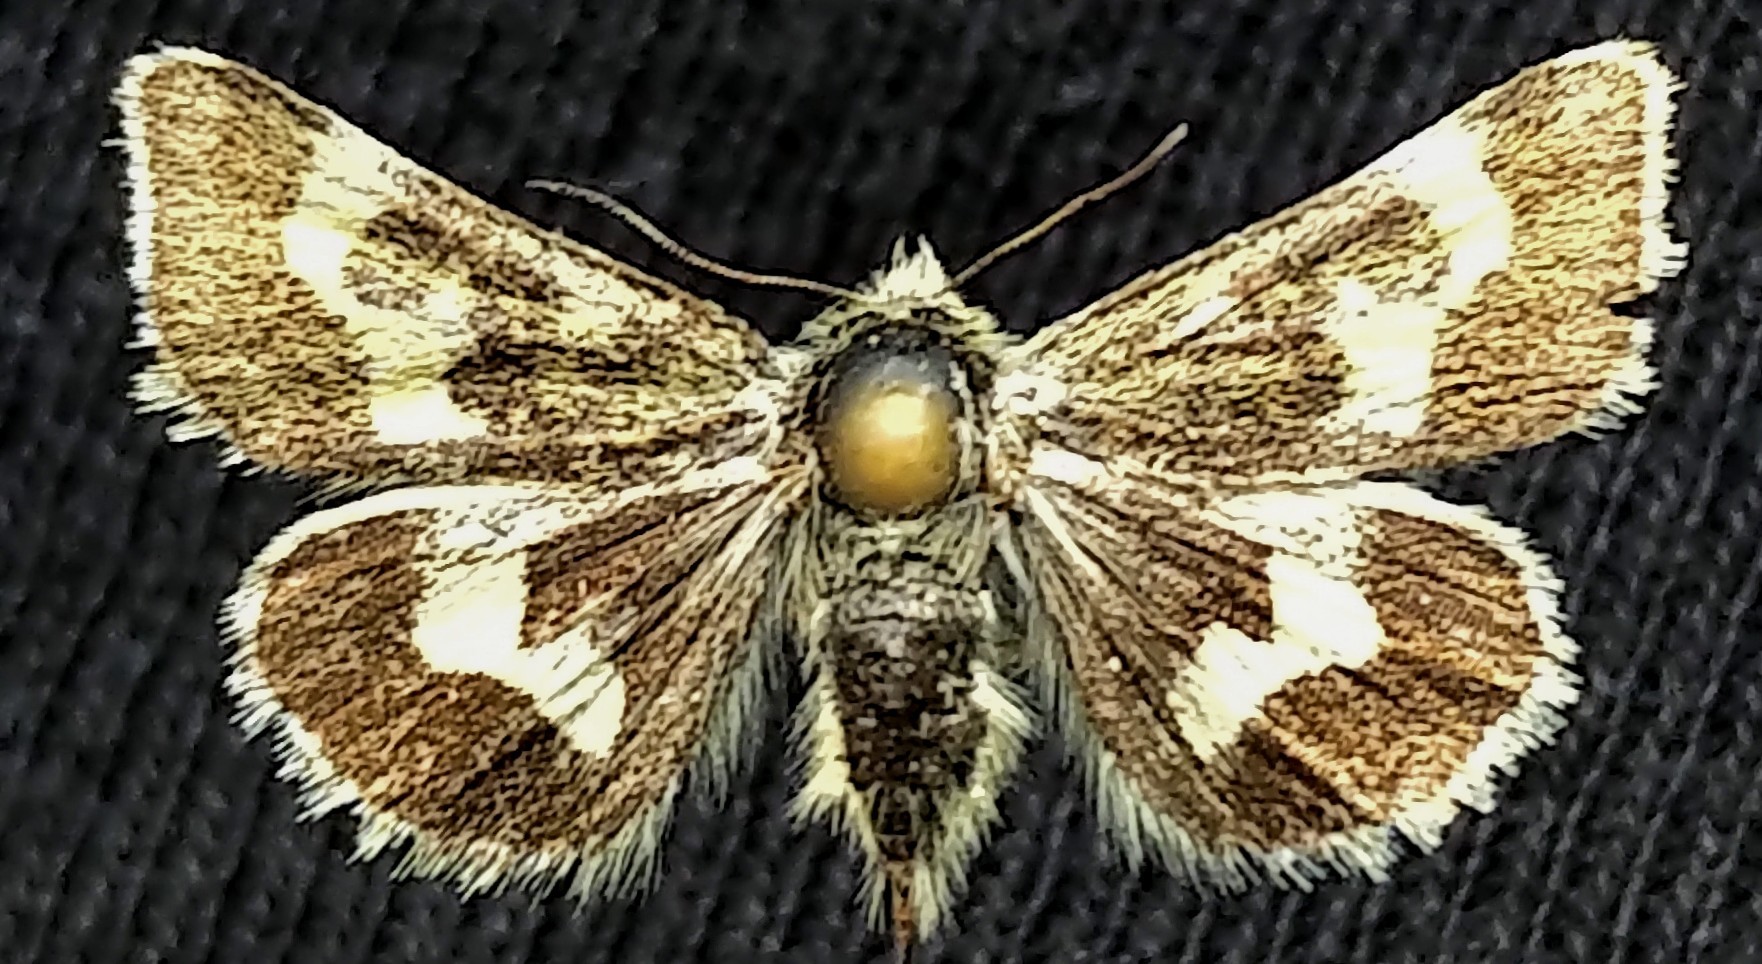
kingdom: Animalia
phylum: Arthropoda
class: Insecta
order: Lepidoptera
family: Noctuidae
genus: Schinia
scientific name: Schinia persimilis
